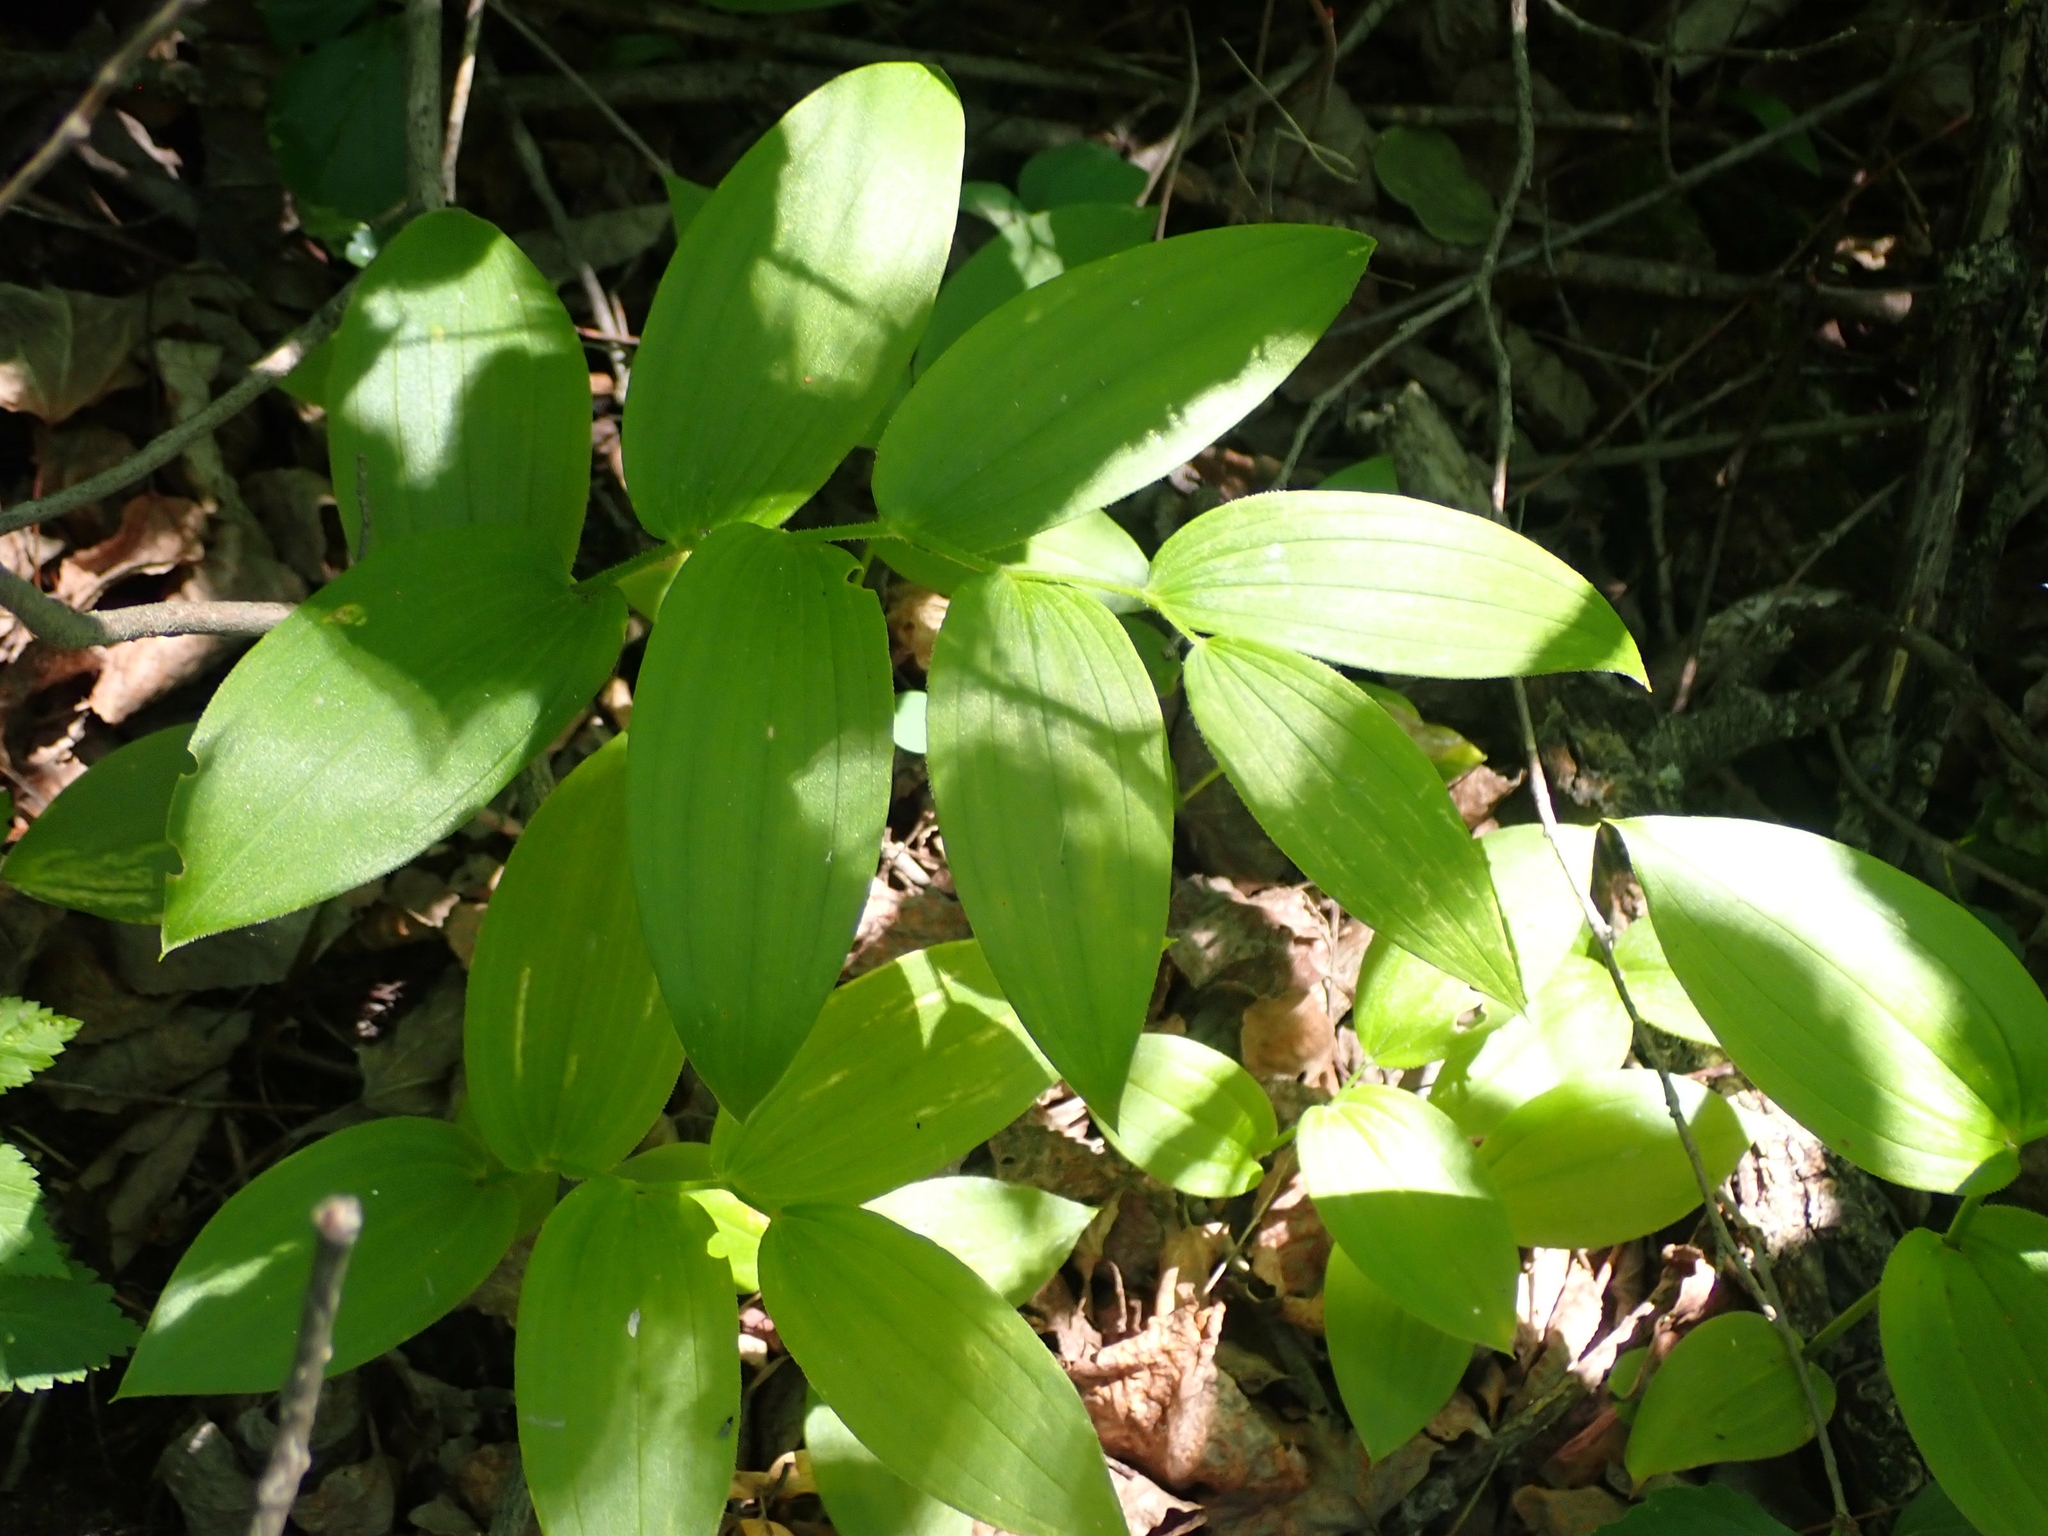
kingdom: Plantae
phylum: Tracheophyta
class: Liliopsida
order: Liliales
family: Liliaceae
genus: Streptopus
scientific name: Streptopus lanceolatus
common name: Rose mandarin
